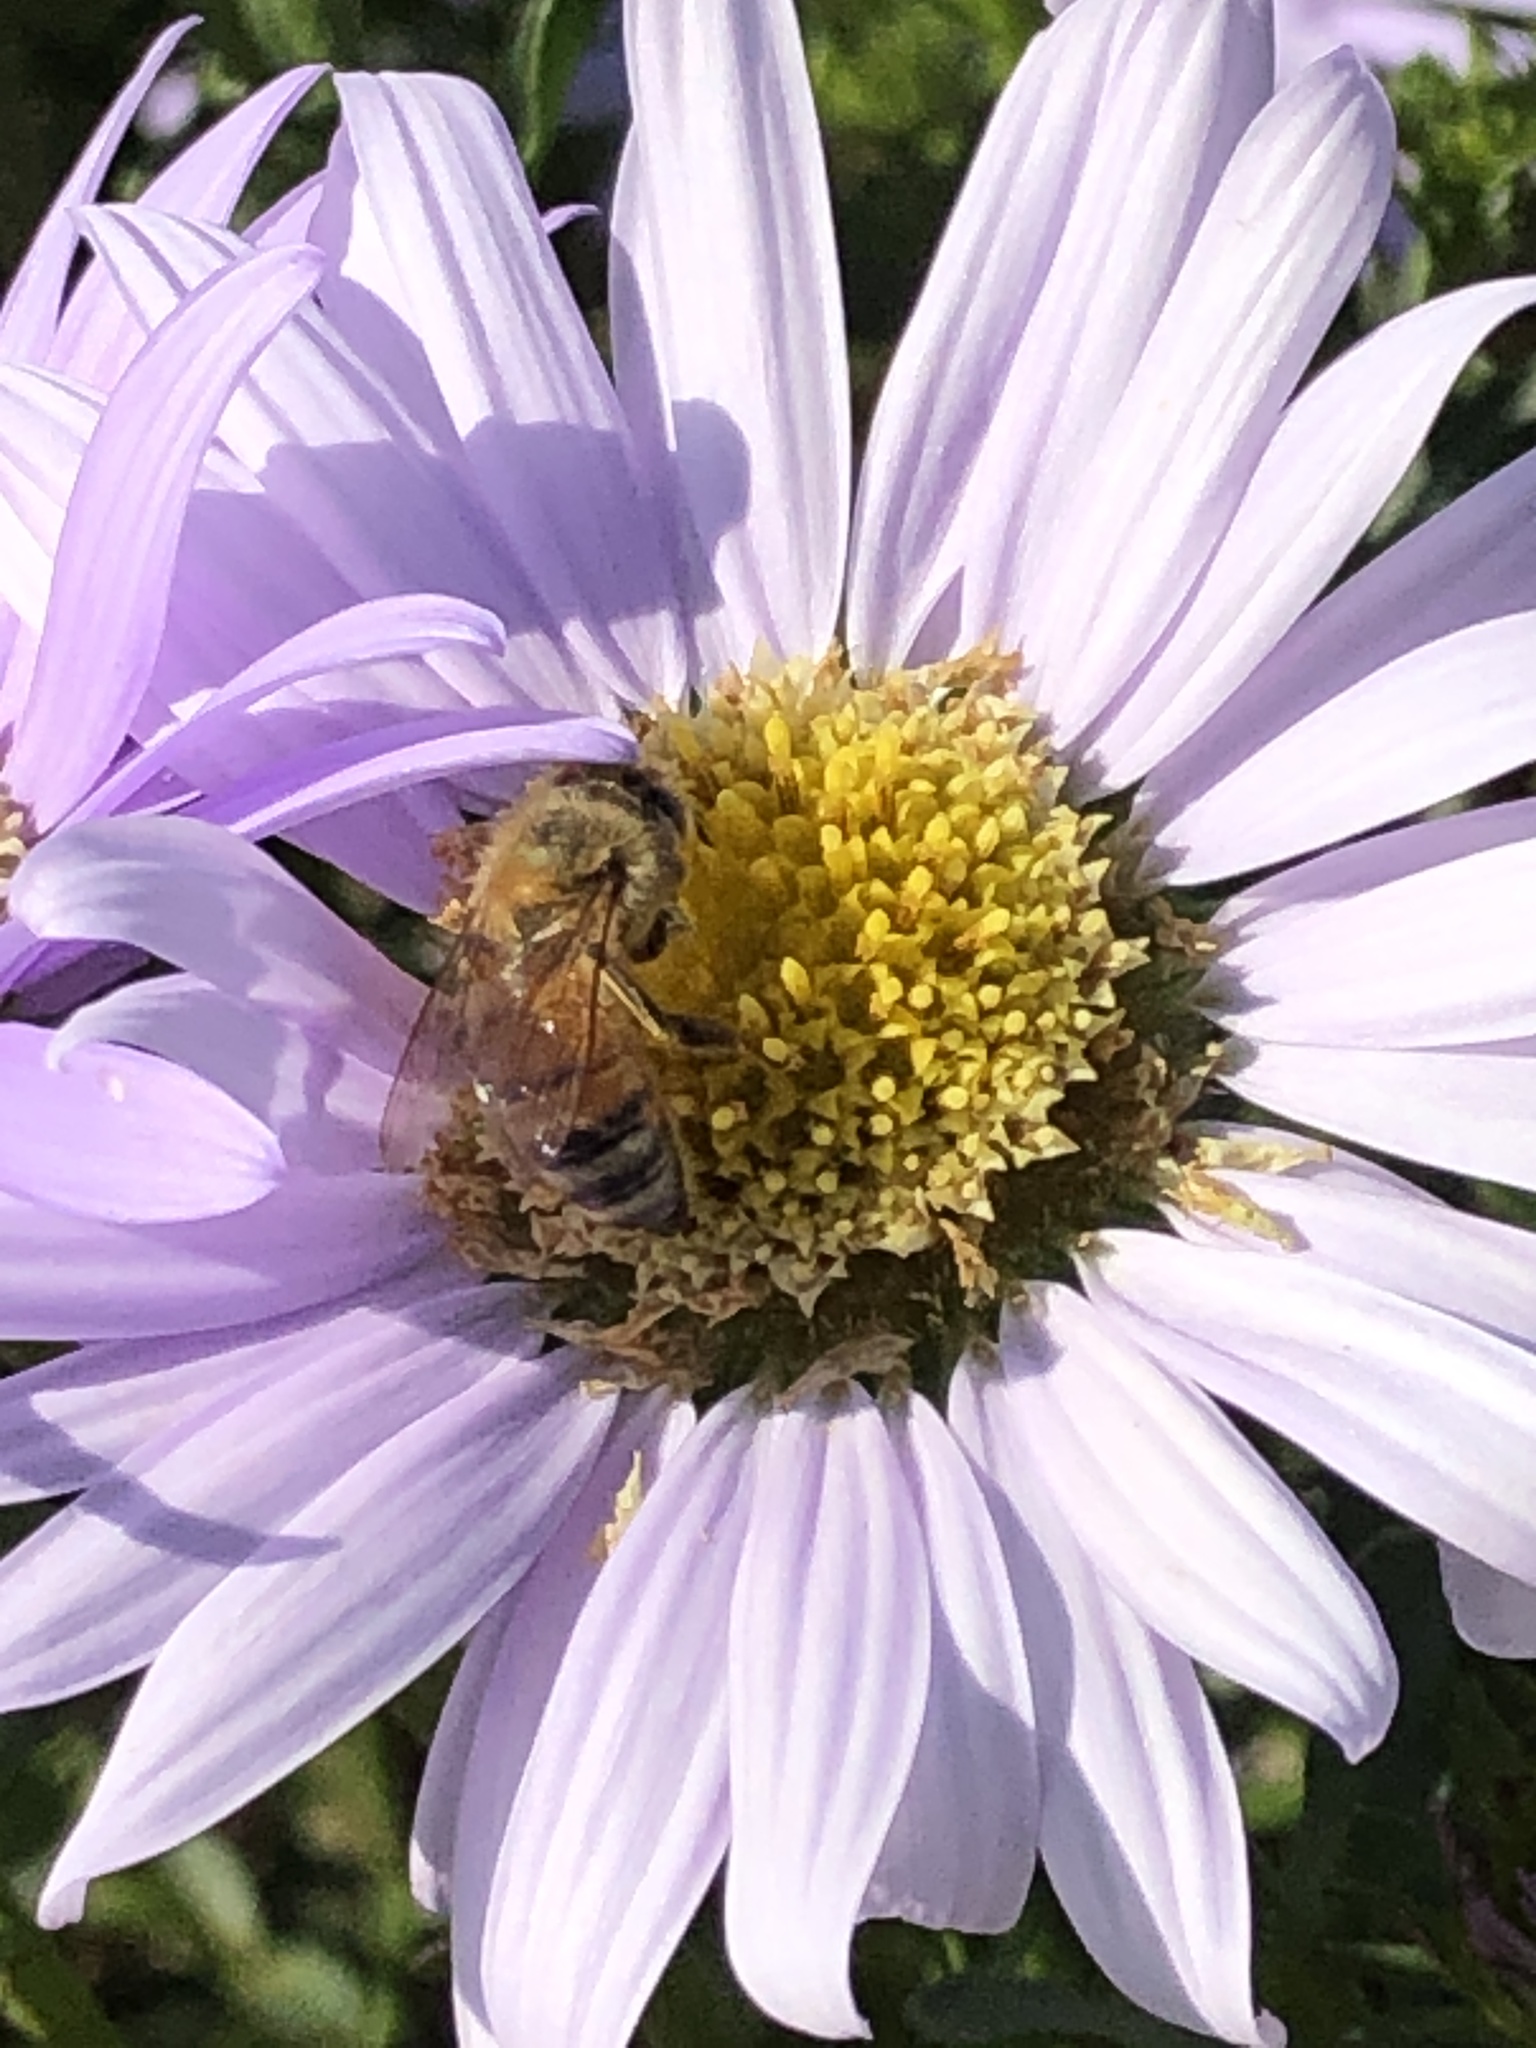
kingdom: Animalia
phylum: Arthropoda
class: Insecta
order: Hymenoptera
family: Apidae
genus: Apis
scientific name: Apis mellifera
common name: Honey bee
